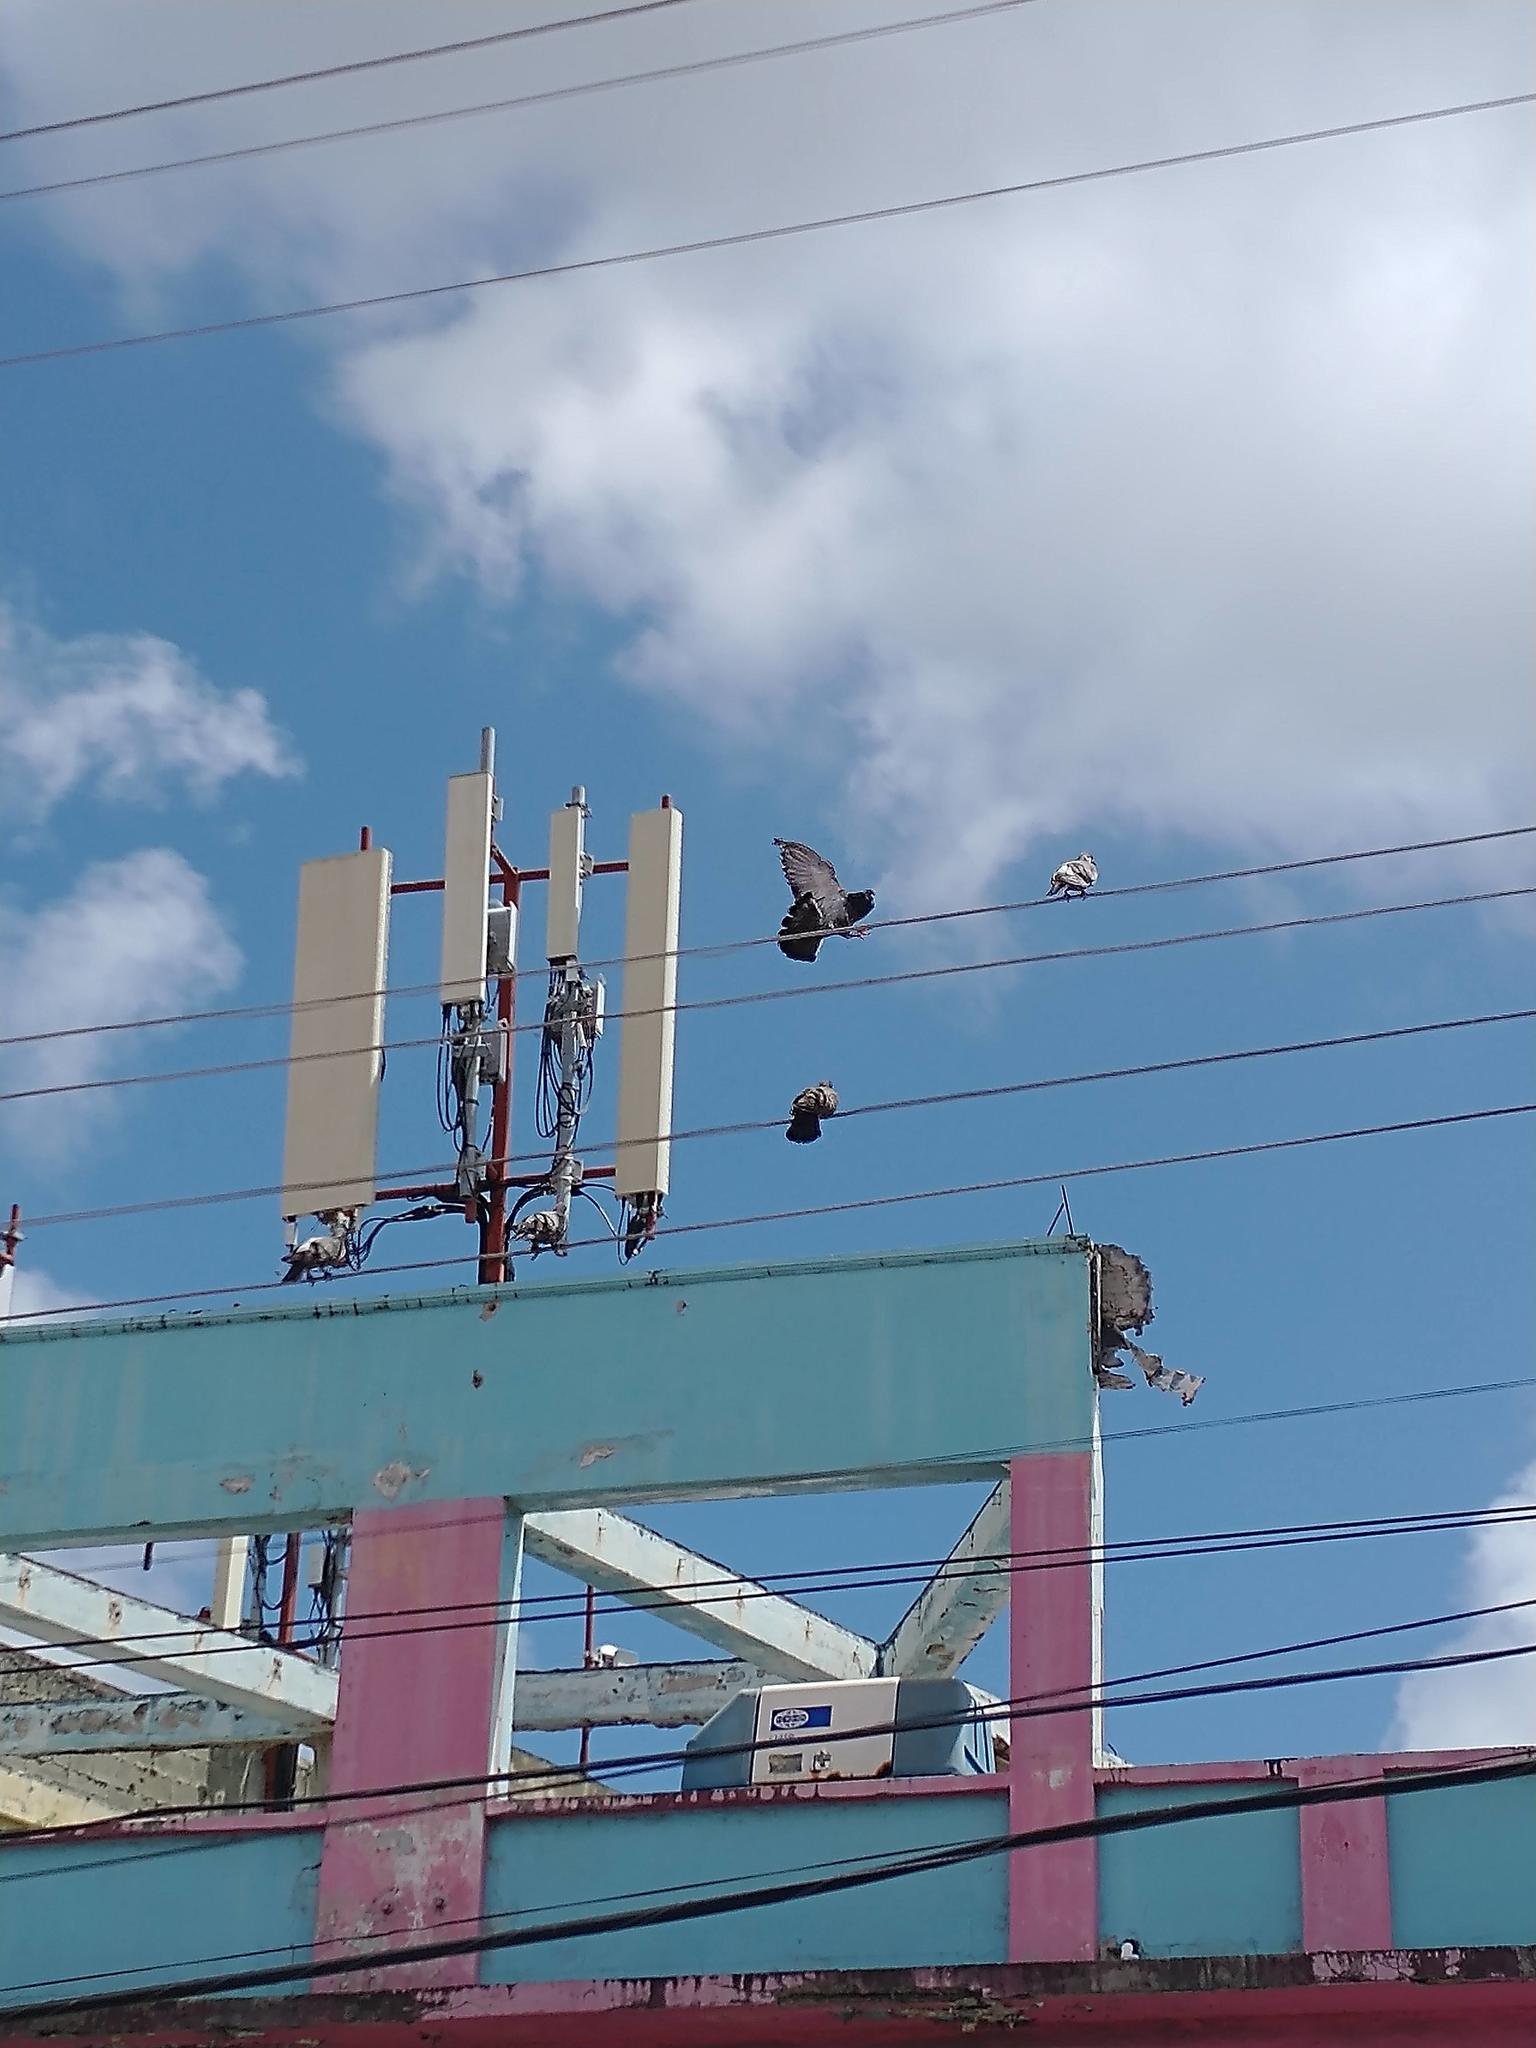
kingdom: Animalia
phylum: Chordata
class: Aves
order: Columbiformes
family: Columbidae
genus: Columba
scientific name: Columba livia
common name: Rock pigeon
